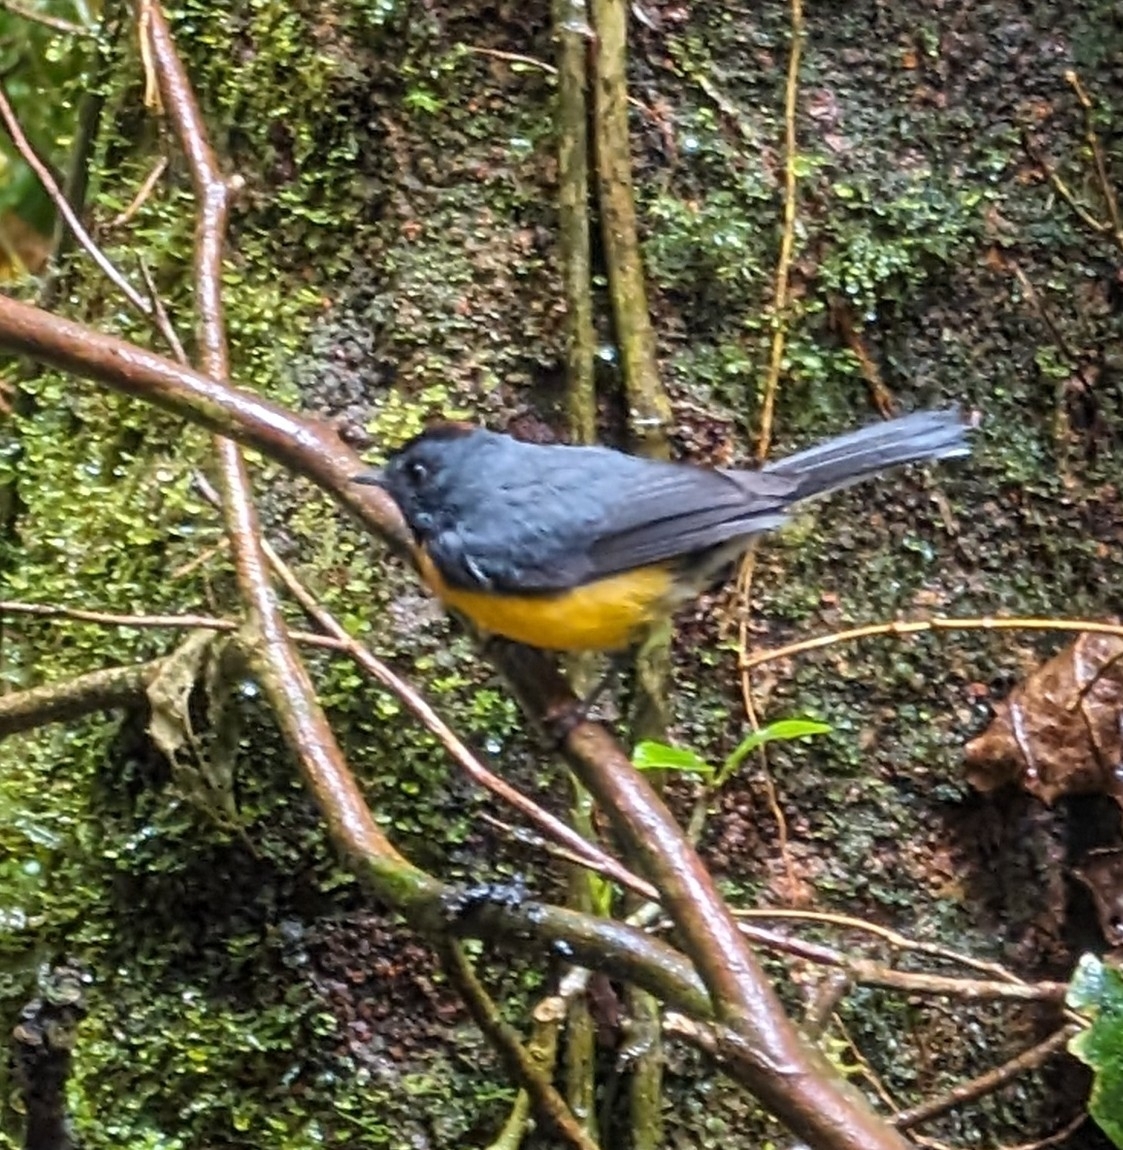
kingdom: Animalia
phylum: Chordata
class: Aves
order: Passeriformes
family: Parulidae
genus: Myioborus
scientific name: Myioborus miniatus
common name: Slate-throated redstart
